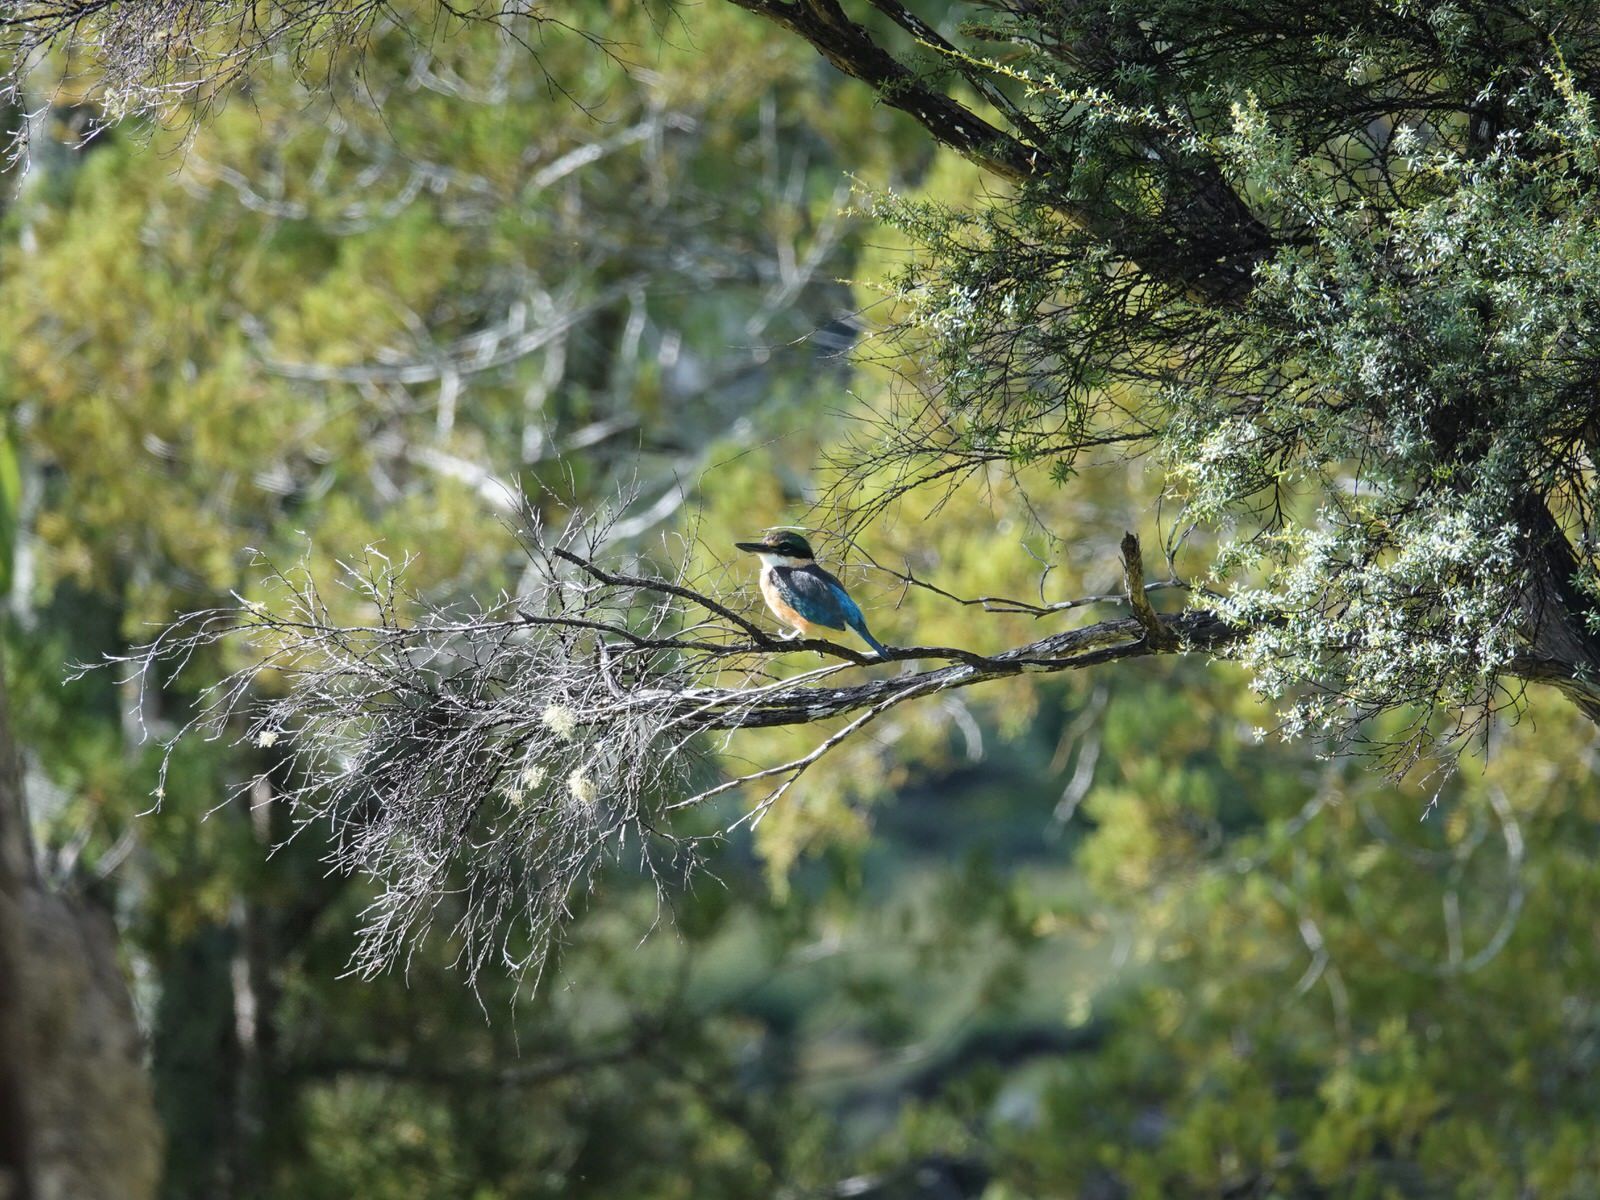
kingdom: Animalia
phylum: Chordata
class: Aves
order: Coraciiformes
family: Alcedinidae
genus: Todiramphus
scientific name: Todiramphus sanctus
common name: Sacred kingfisher
